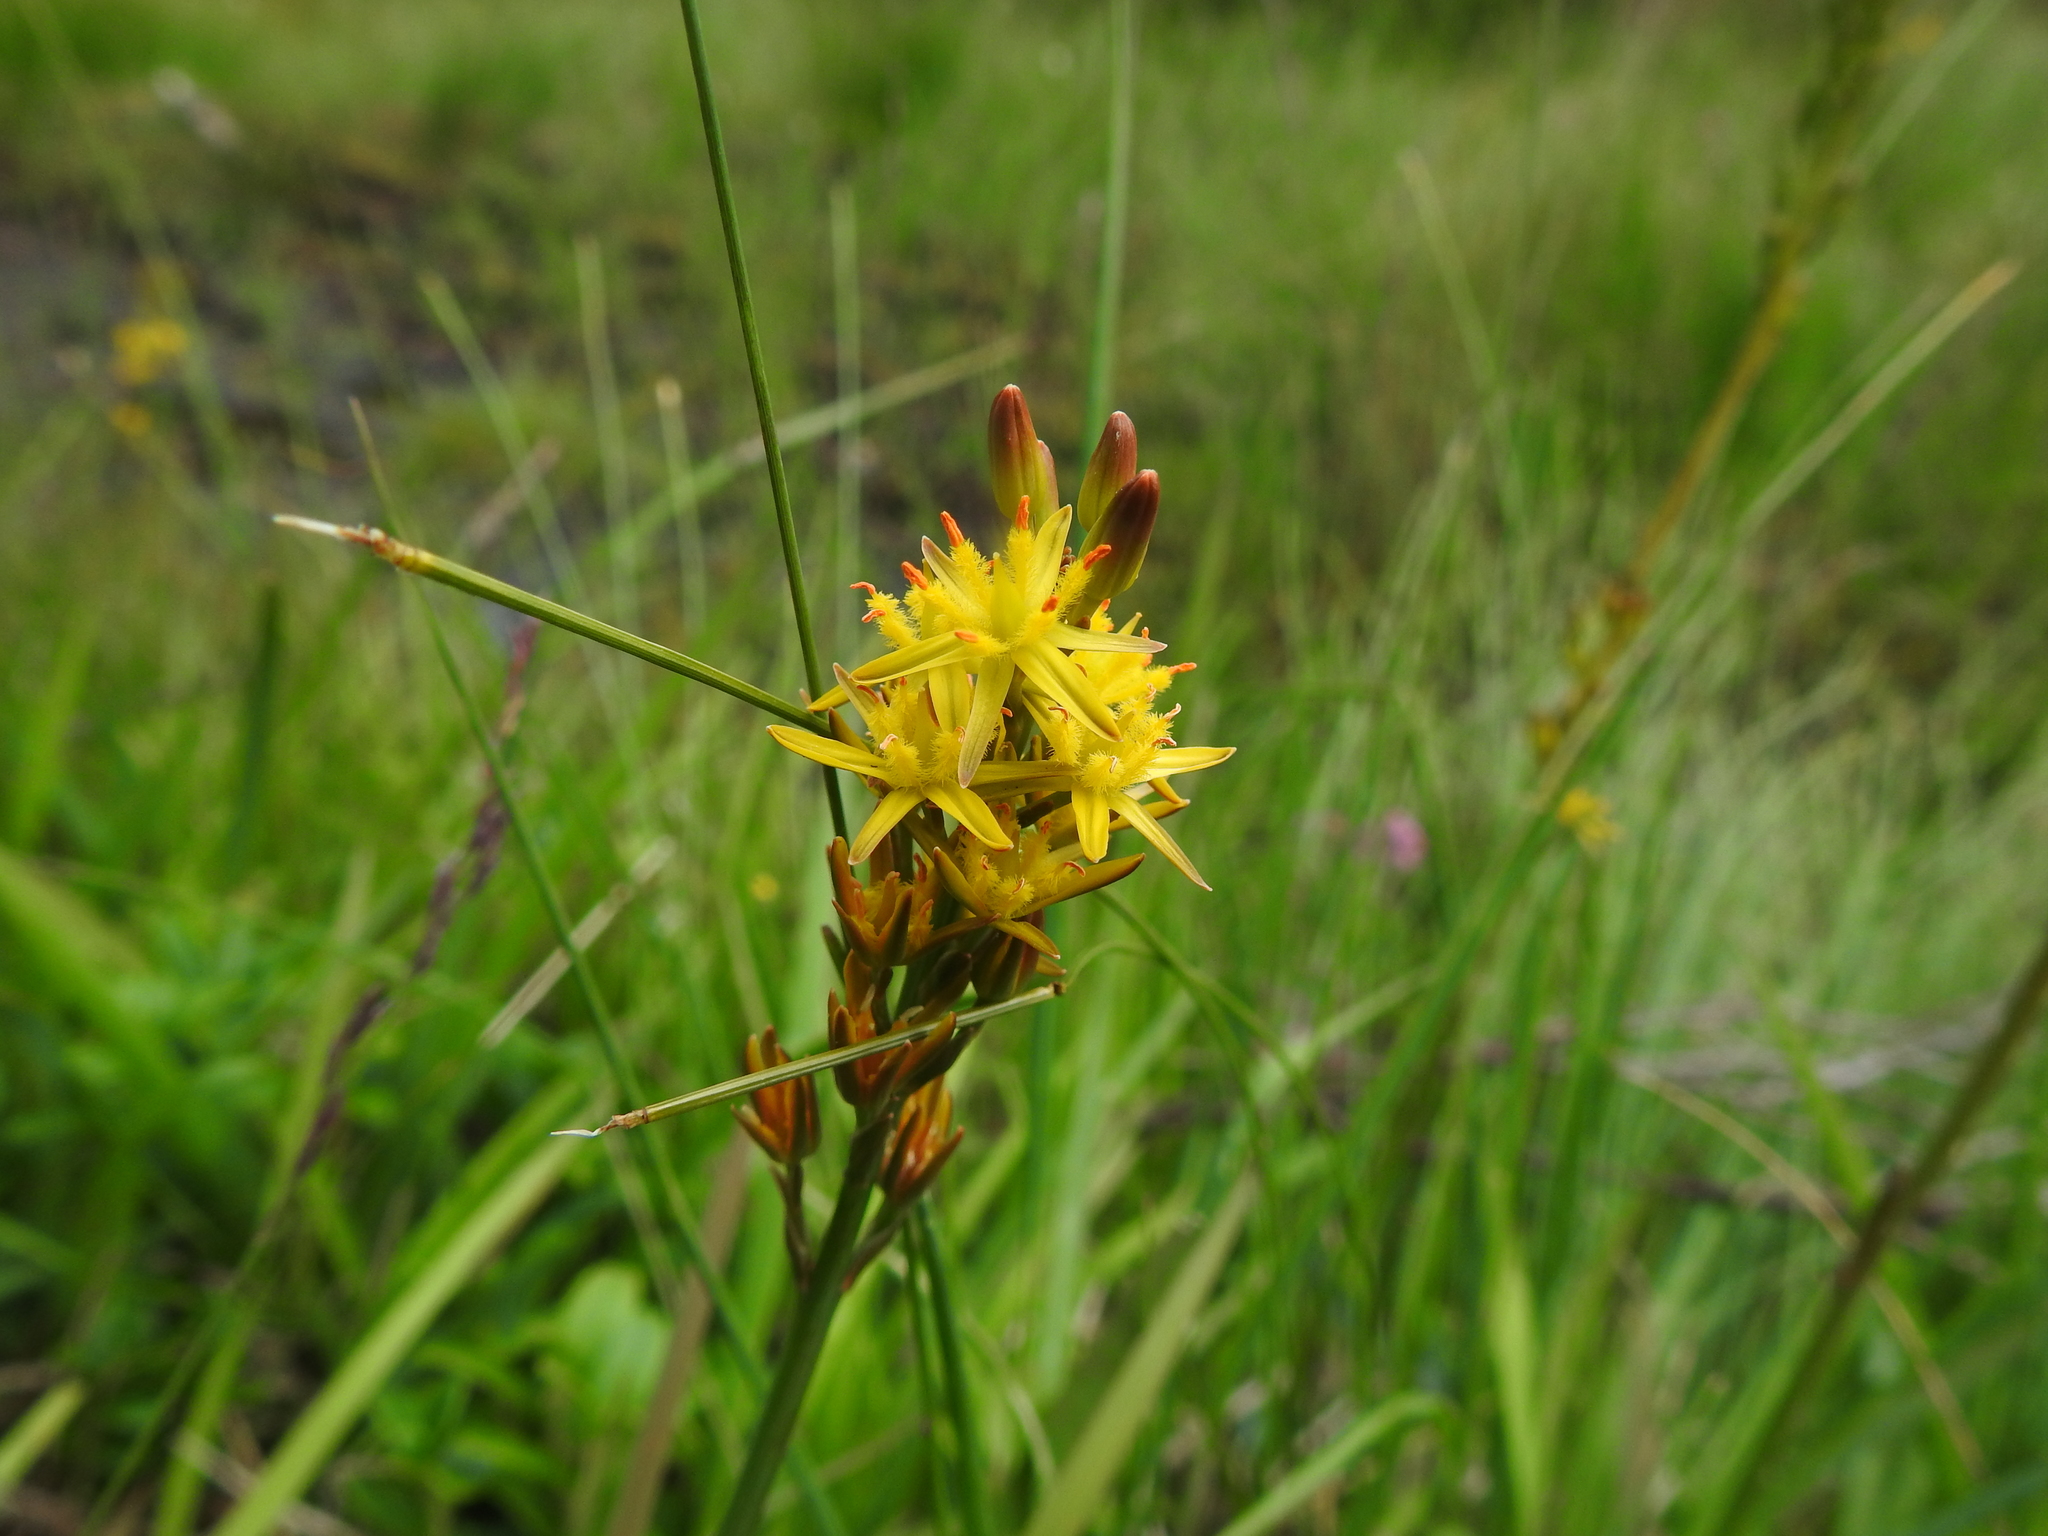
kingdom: Plantae
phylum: Tracheophyta
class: Liliopsida
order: Dioscoreales
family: Nartheciaceae
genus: Narthecium
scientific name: Narthecium ossifragum
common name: Bog asphodel
